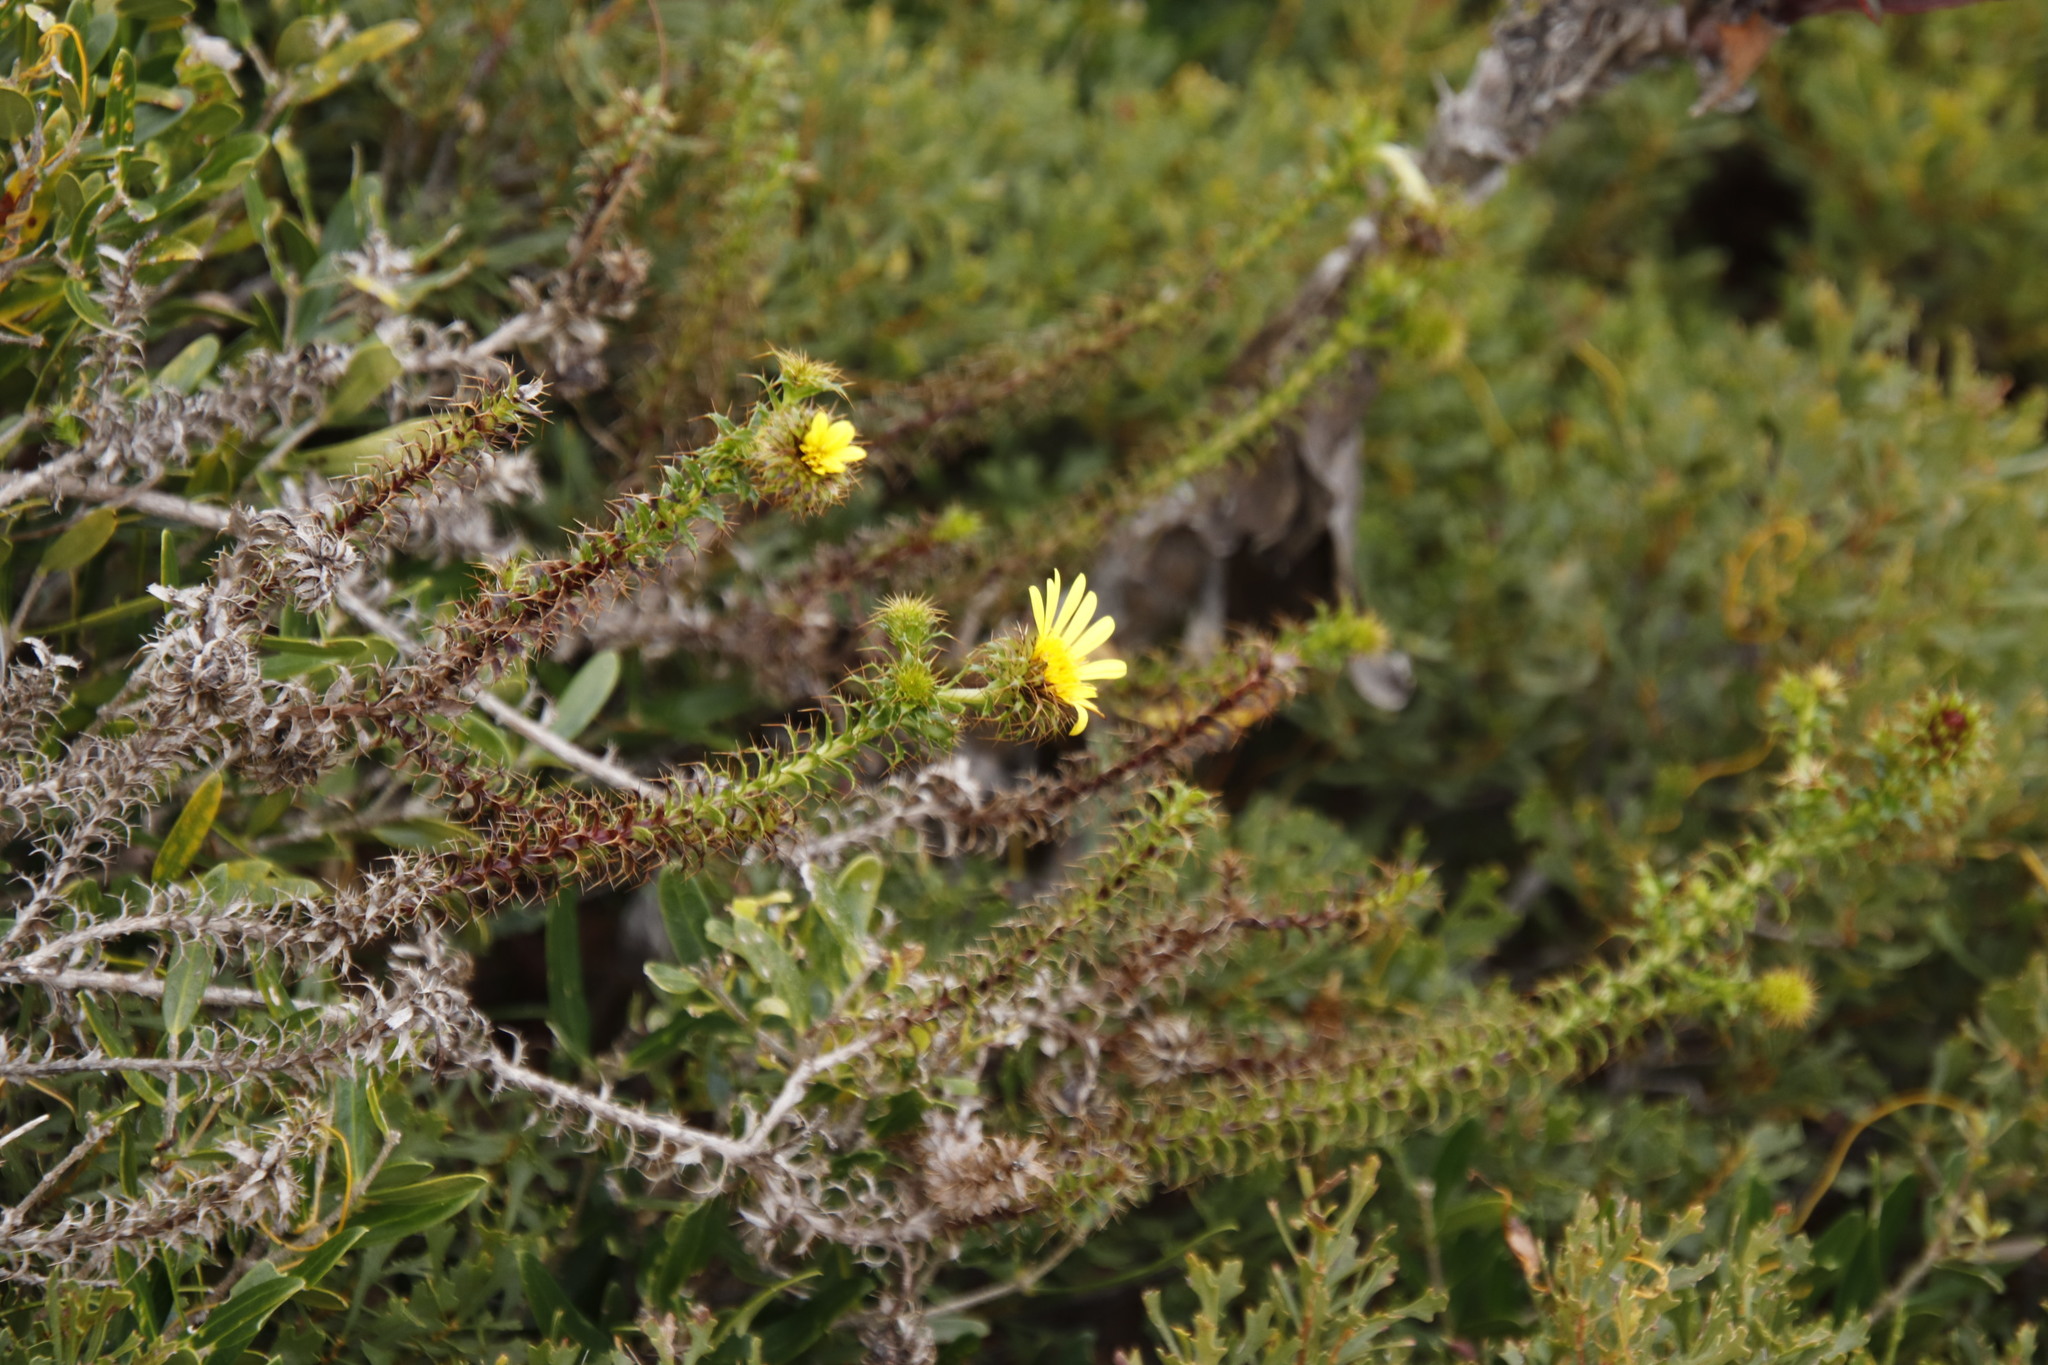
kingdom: Plantae
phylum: Tracheophyta
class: Magnoliopsida
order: Asterales
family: Asteraceae
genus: Cullumia
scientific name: Cullumia setosa
